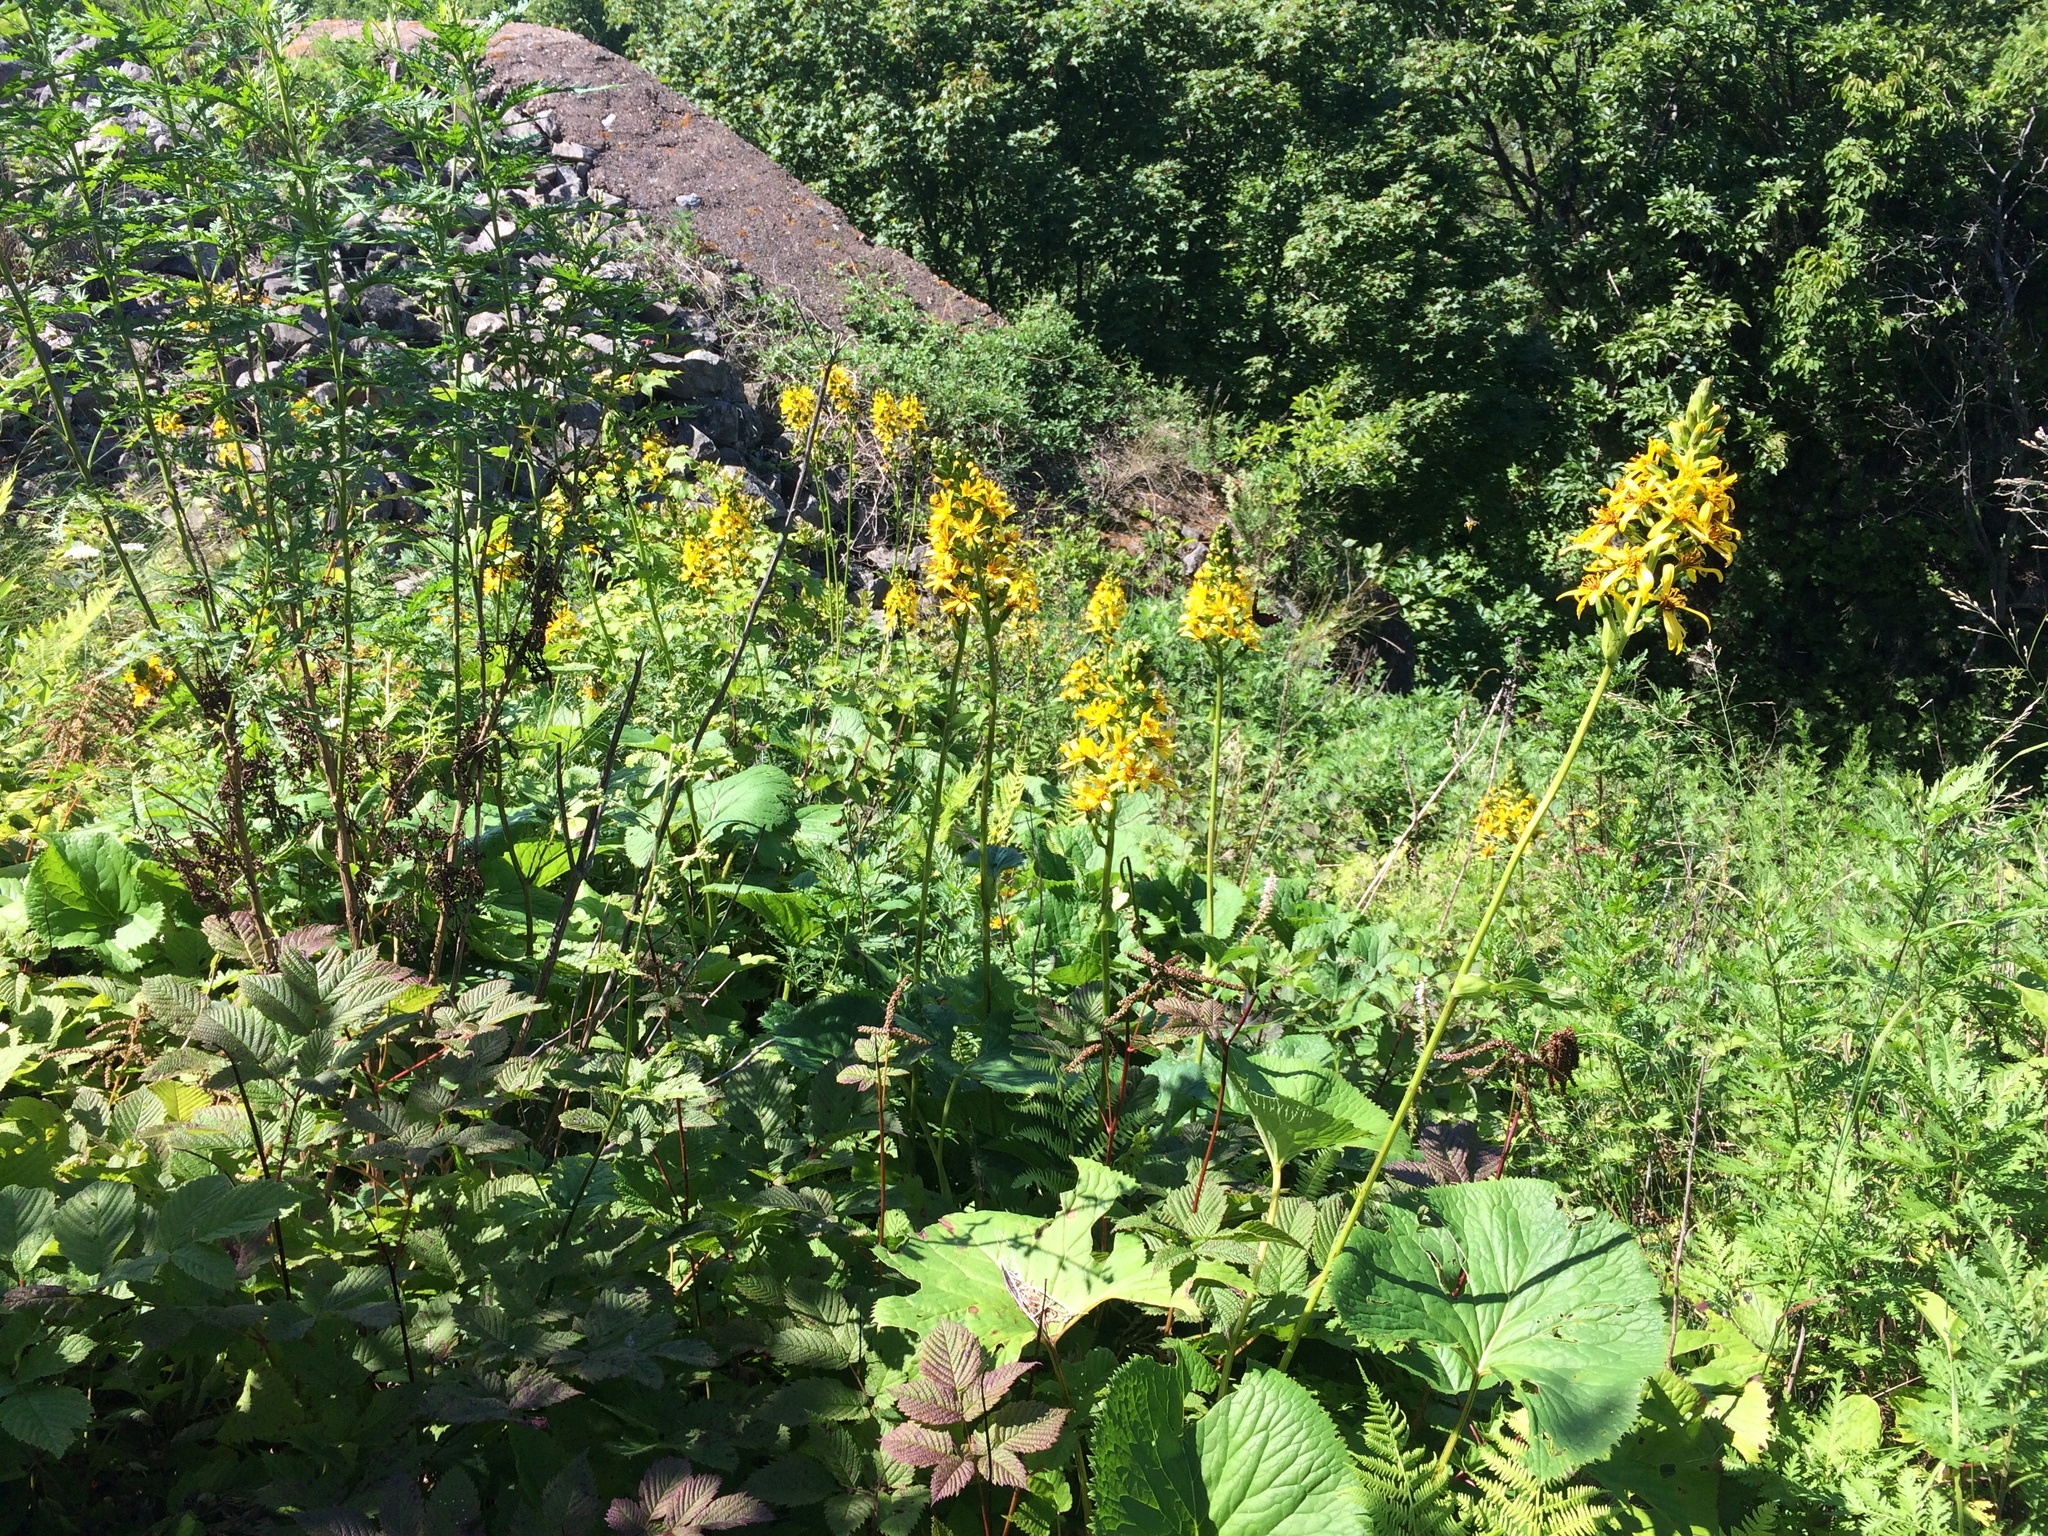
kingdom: Plantae
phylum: Tracheophyta
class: Magnoliopsida
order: Asterales
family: Asteraceae
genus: Ligularia
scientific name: Ligularia fischeri
